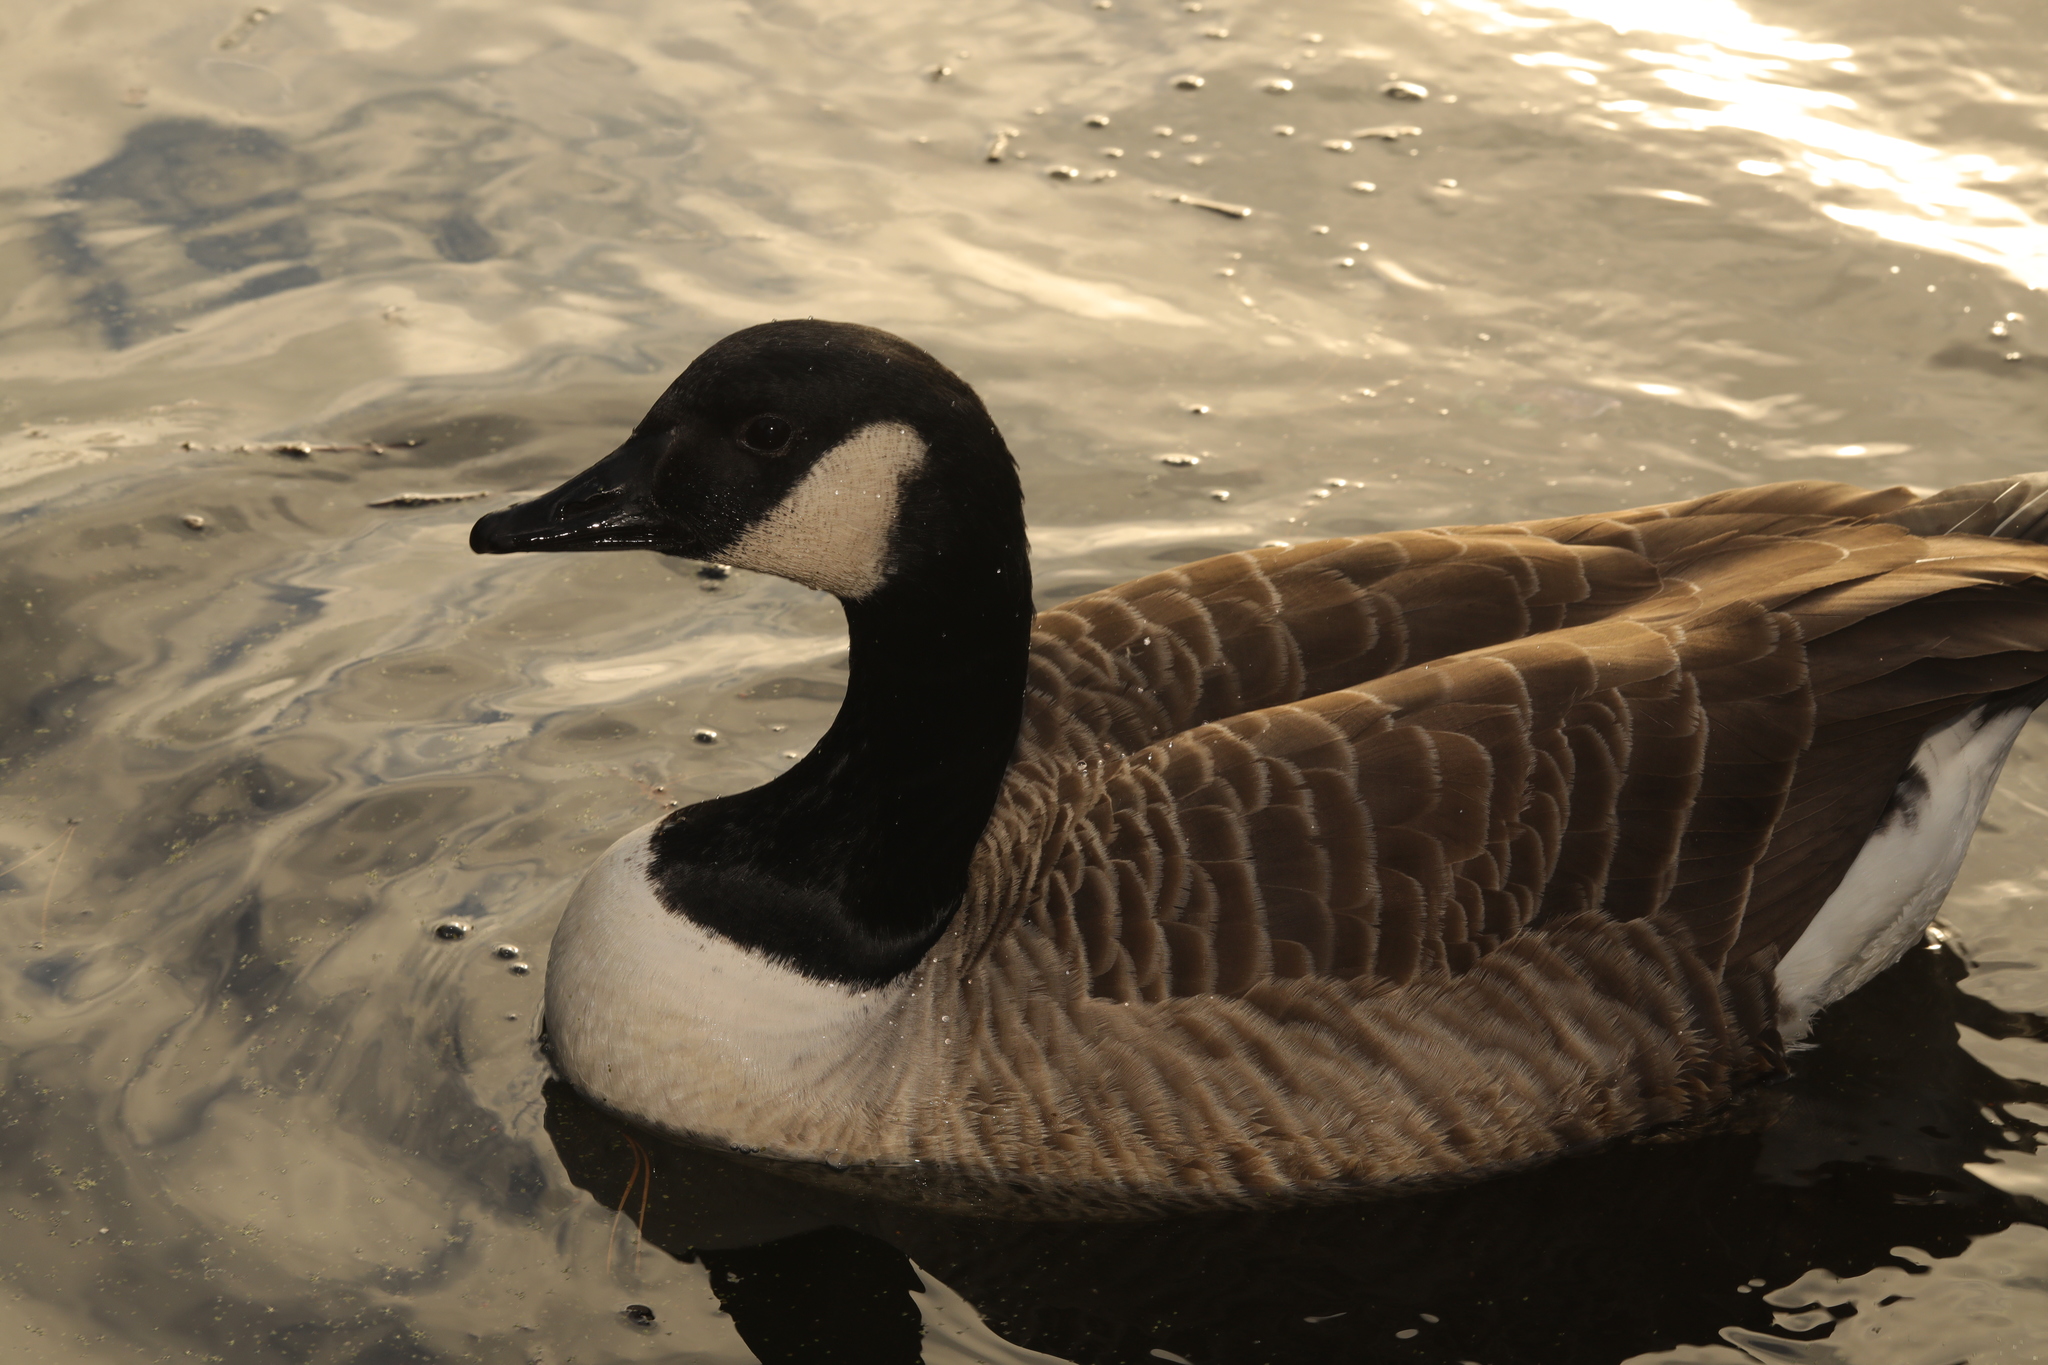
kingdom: Animalia
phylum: Chordata
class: Aves
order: Anseriformes
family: Anatidae
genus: Branta
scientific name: Branta canadensis
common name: Canada goose
